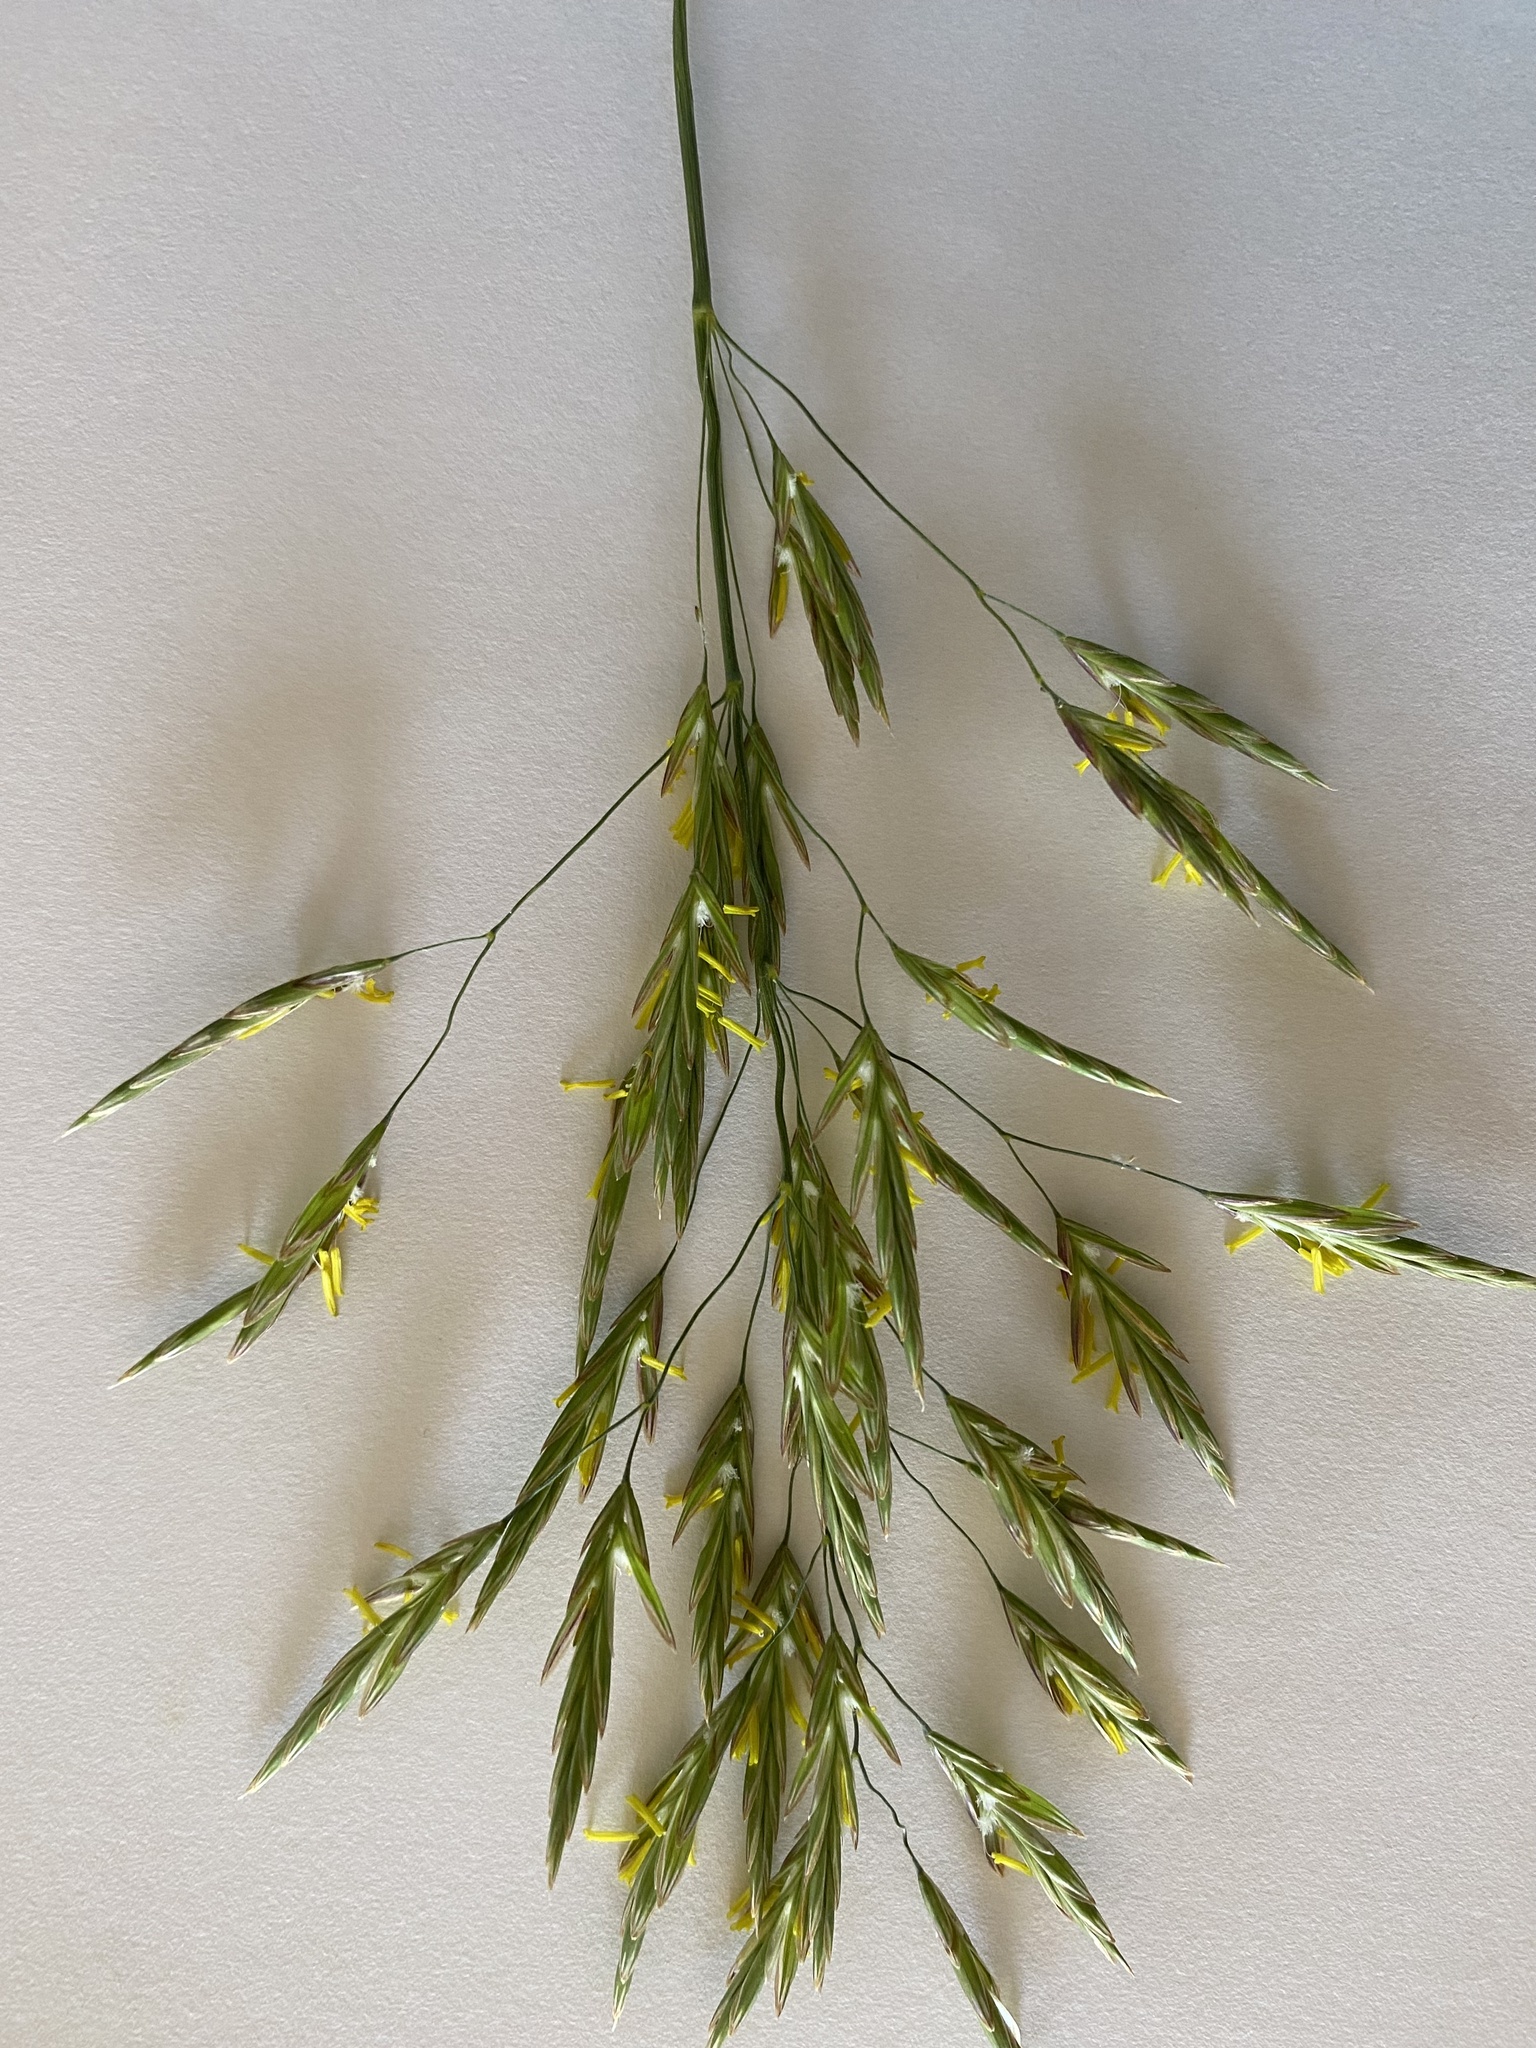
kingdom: Plantae
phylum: Tracheophyta
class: Liliopsida
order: Poales
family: Poaceae
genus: Bromus
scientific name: Bromus inermis
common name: Smooth brome
